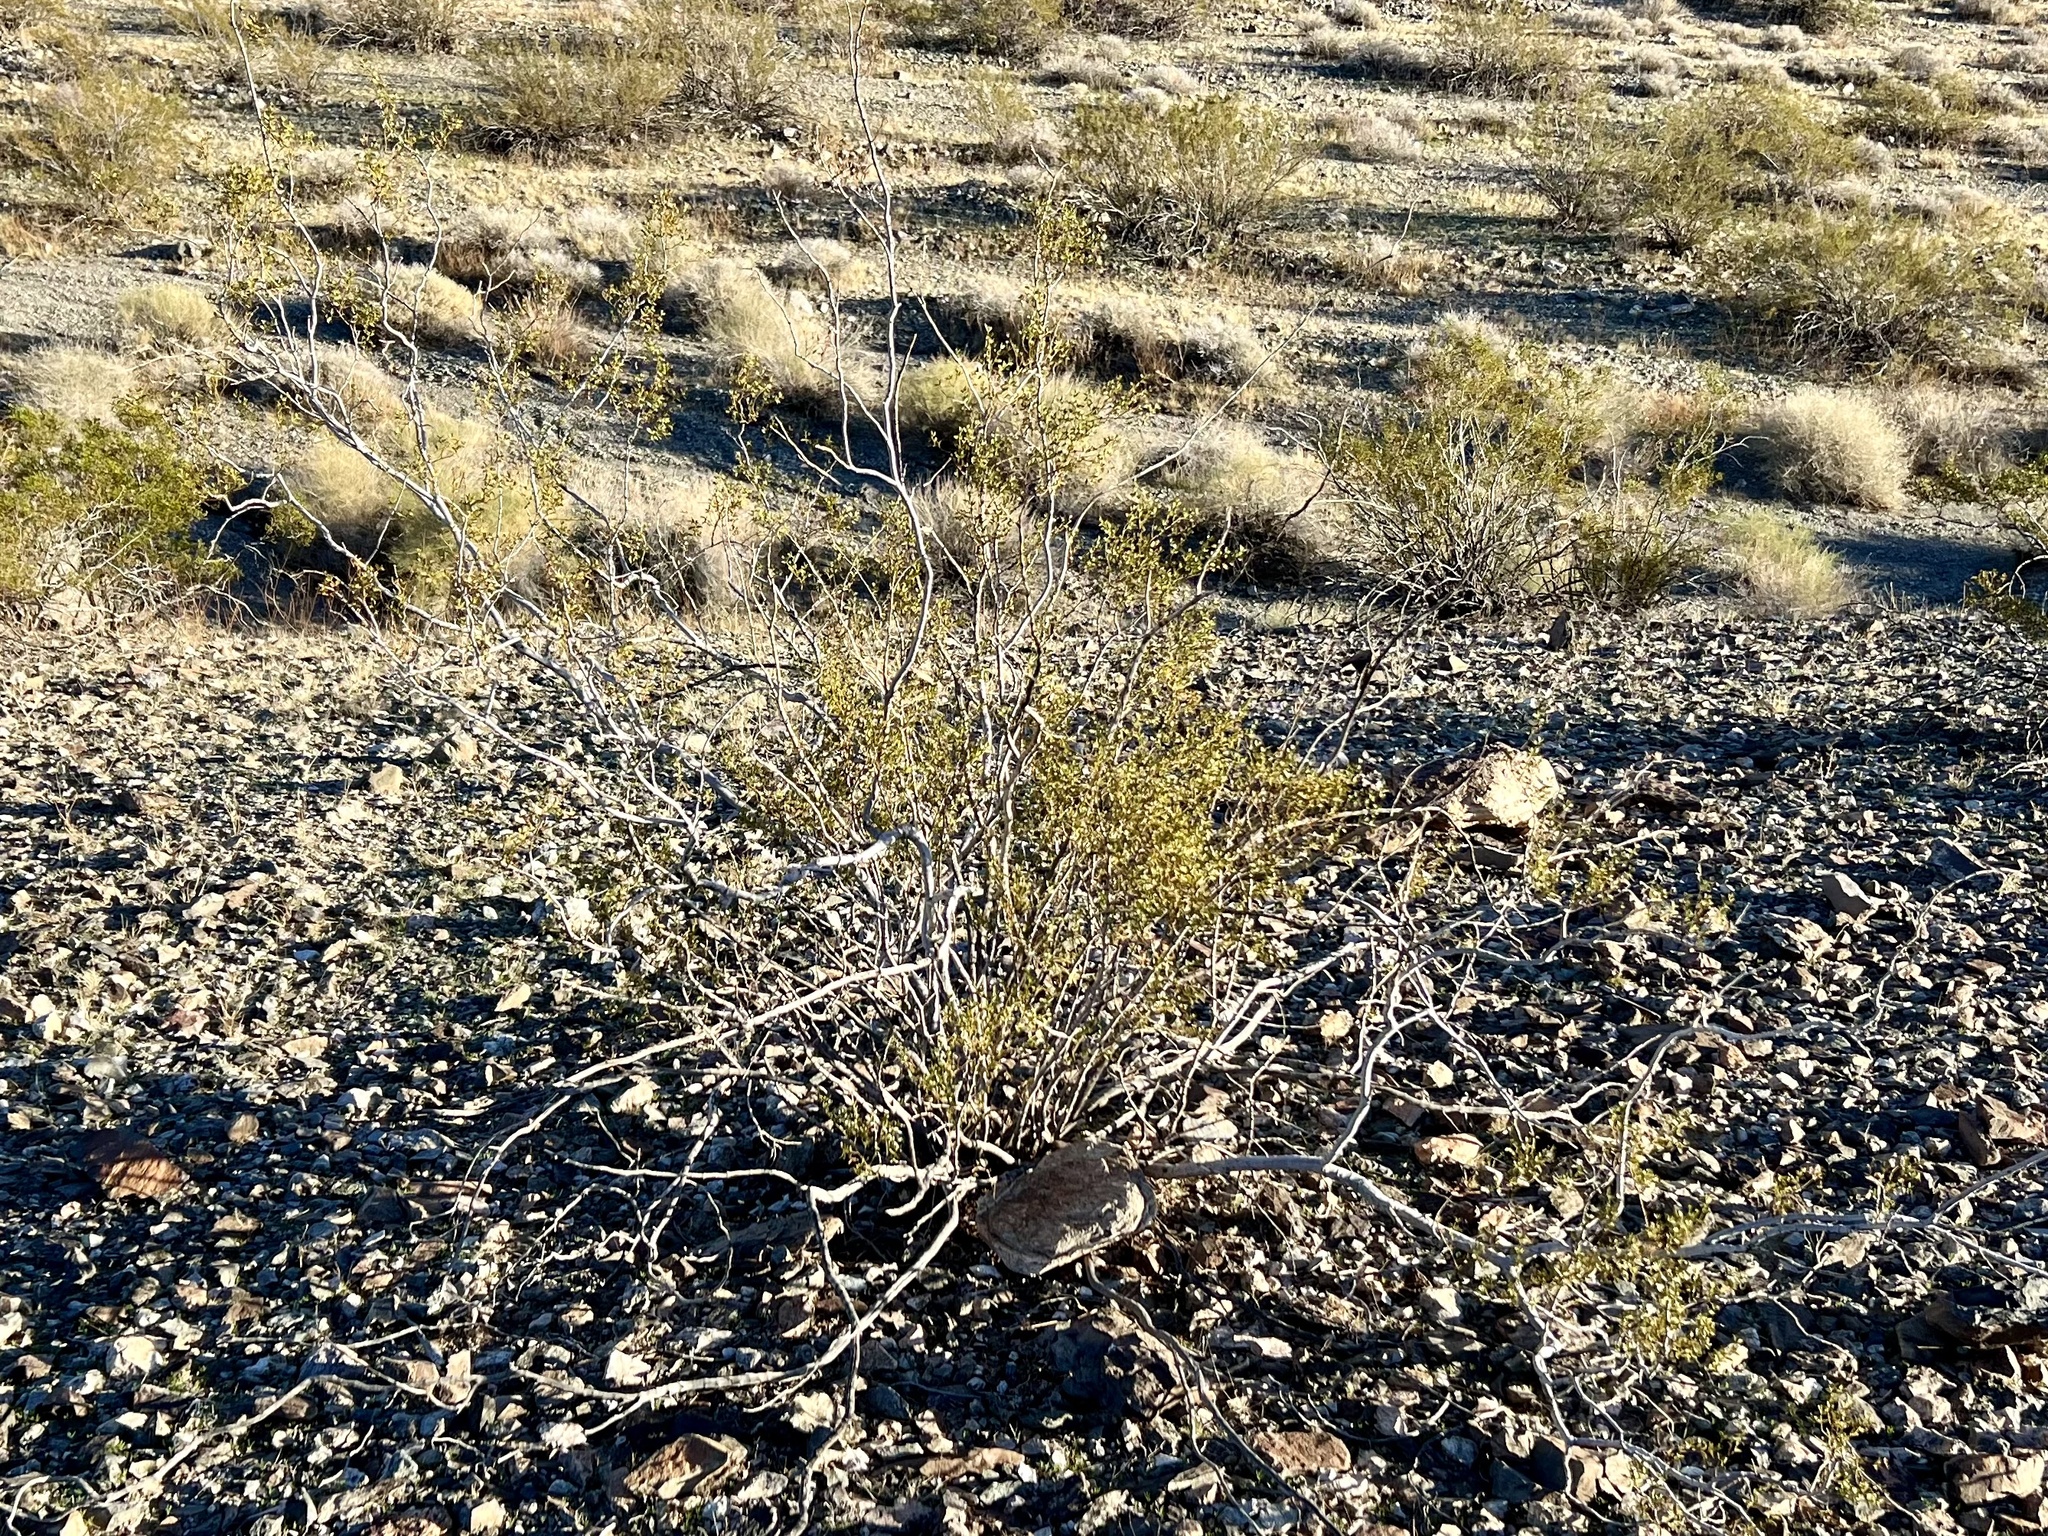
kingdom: Plantae
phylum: Tracheophyta
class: Magnoliopsida
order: Zygophyllales
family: Zygophyllaceae
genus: Larrea
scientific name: Larrea tridentata
